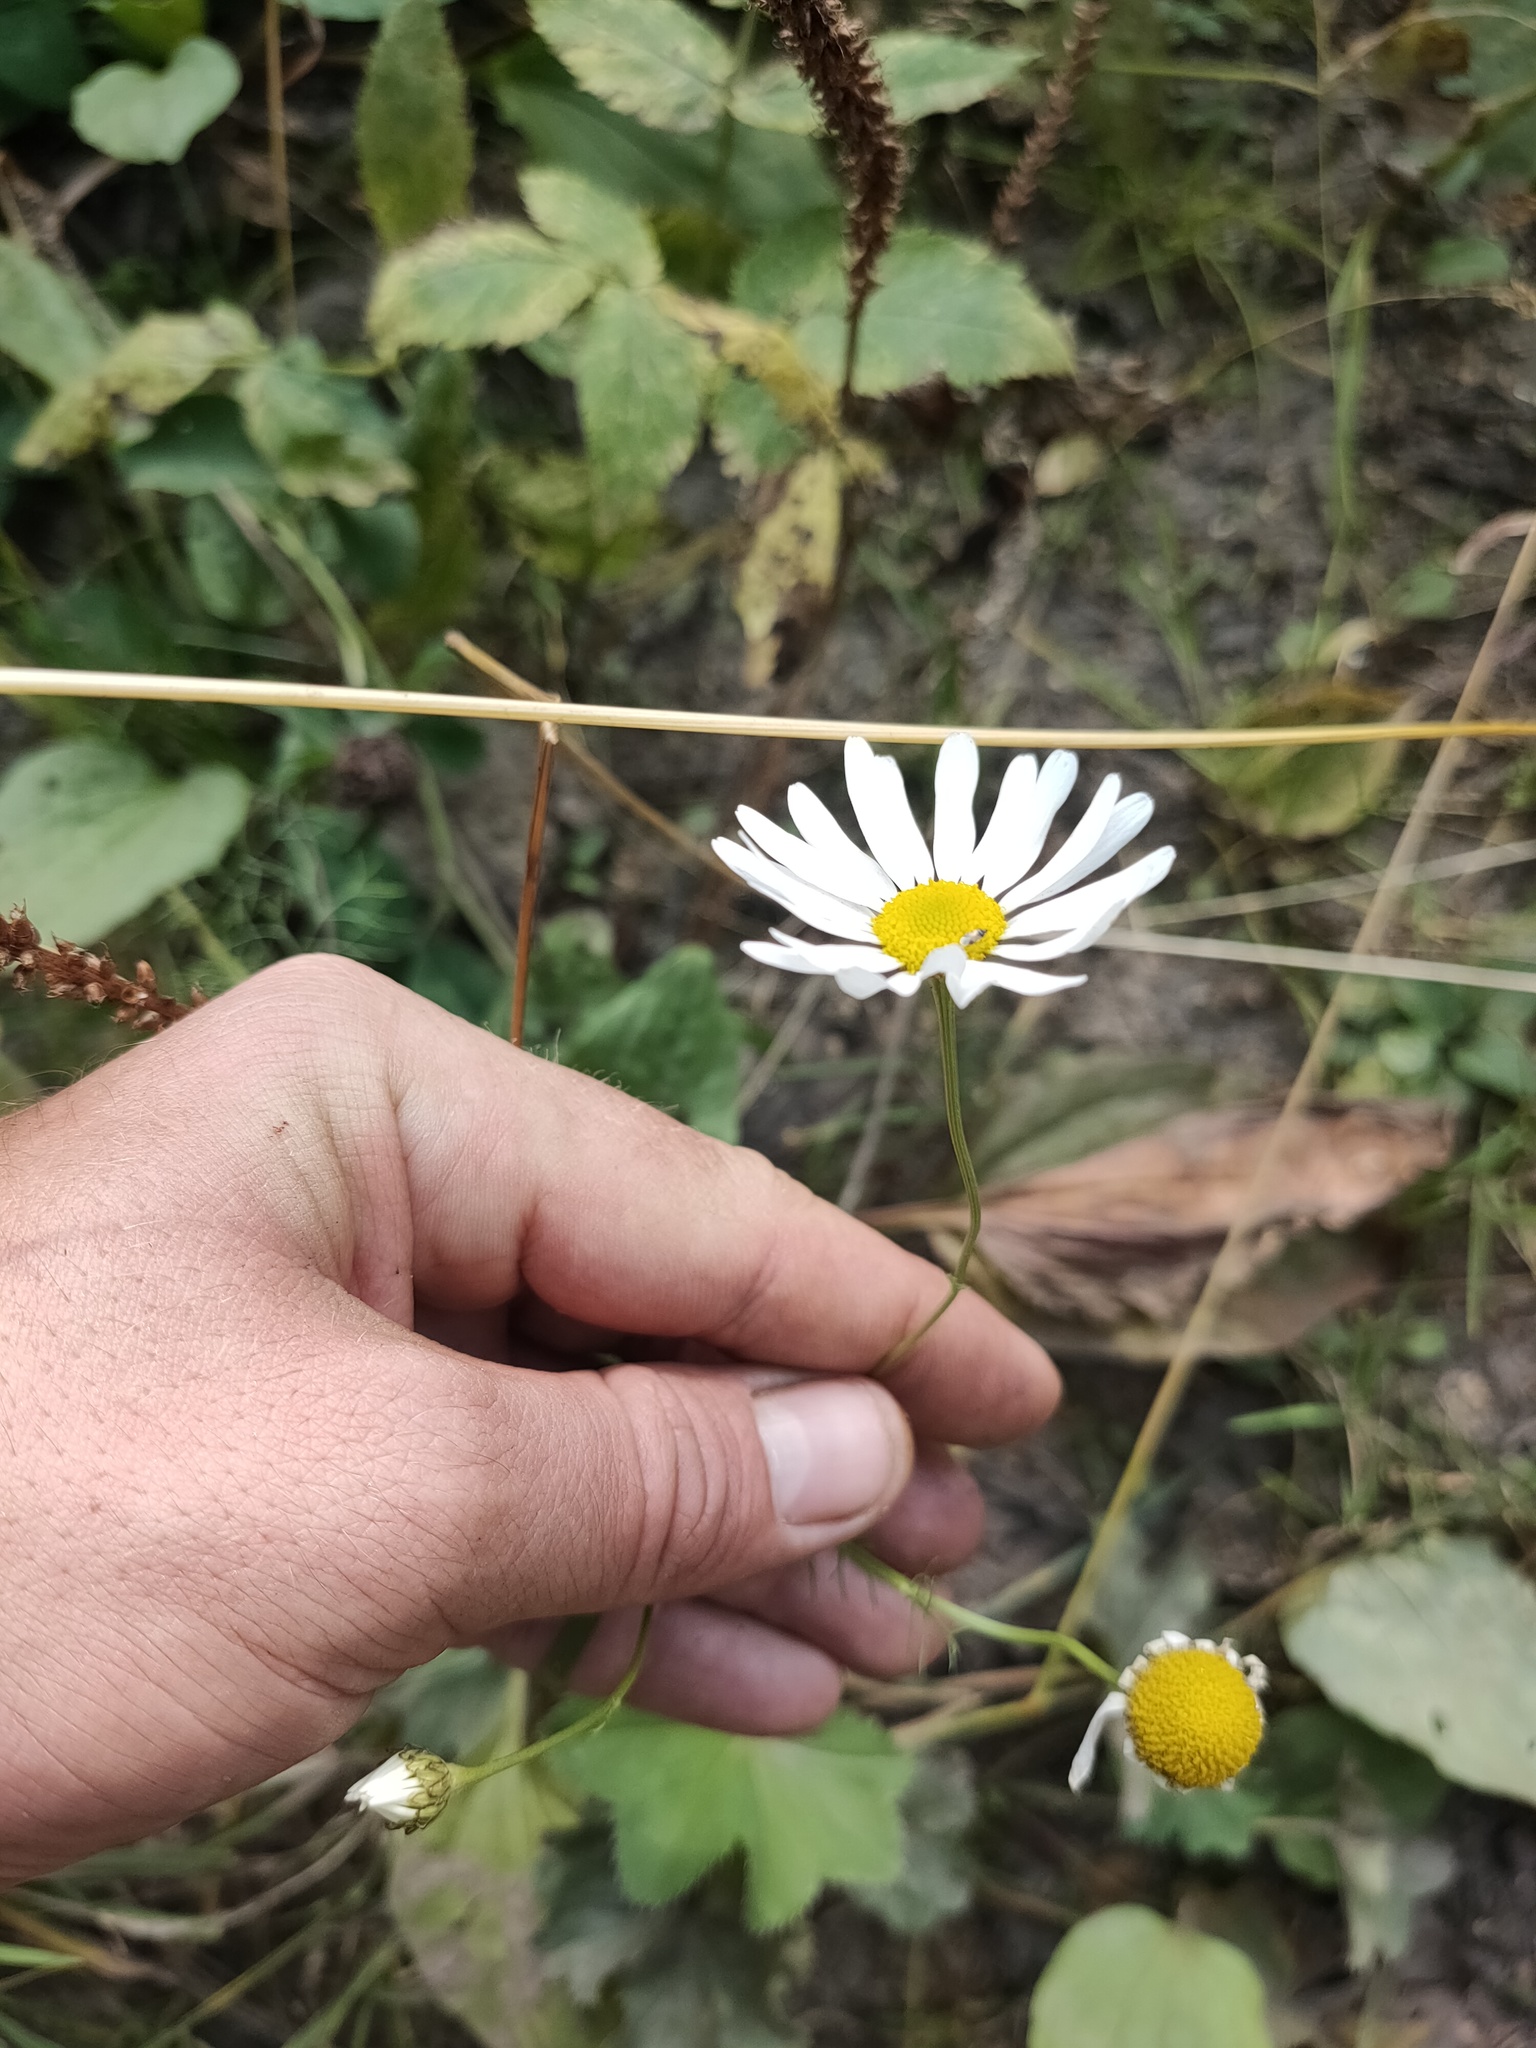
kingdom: Plantae
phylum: Tracheophyta
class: Magnoliopsida
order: Asterales
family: Asteraceae
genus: Tripleurospermum
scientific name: Tripleurospermum inodorum
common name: Scentless mayweed
